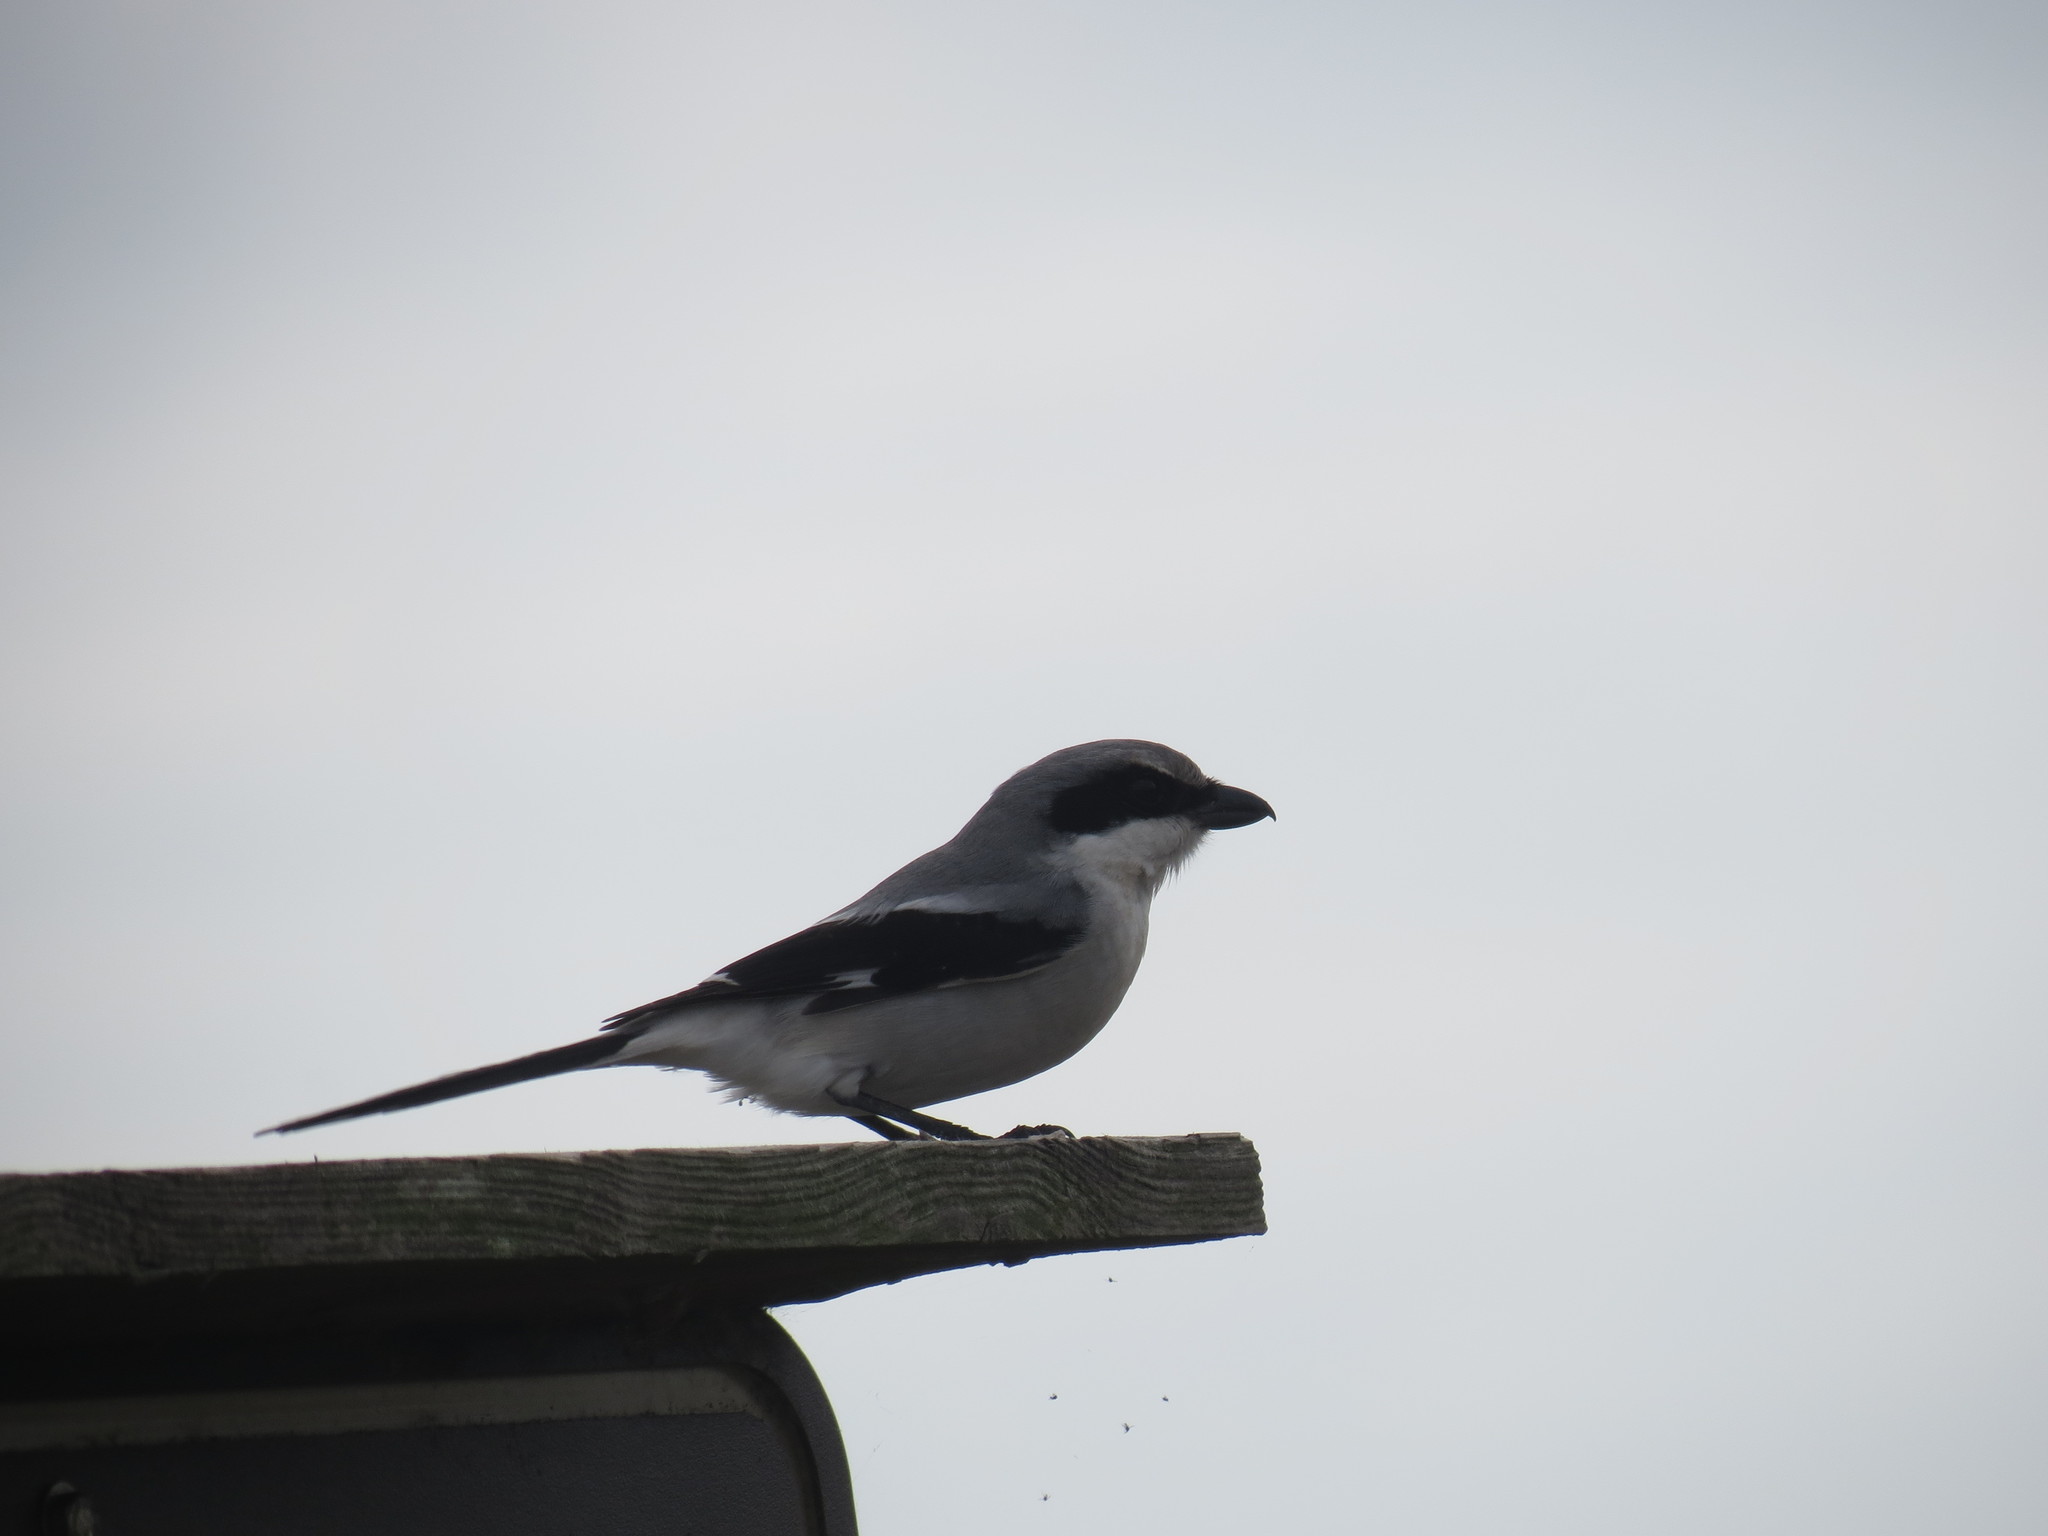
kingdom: Animalia
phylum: Chordata
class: Aves
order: Passeriformes
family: Laniidae
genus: Lanius
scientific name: Lanius ludovicianus
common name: Loggerhead shrike
